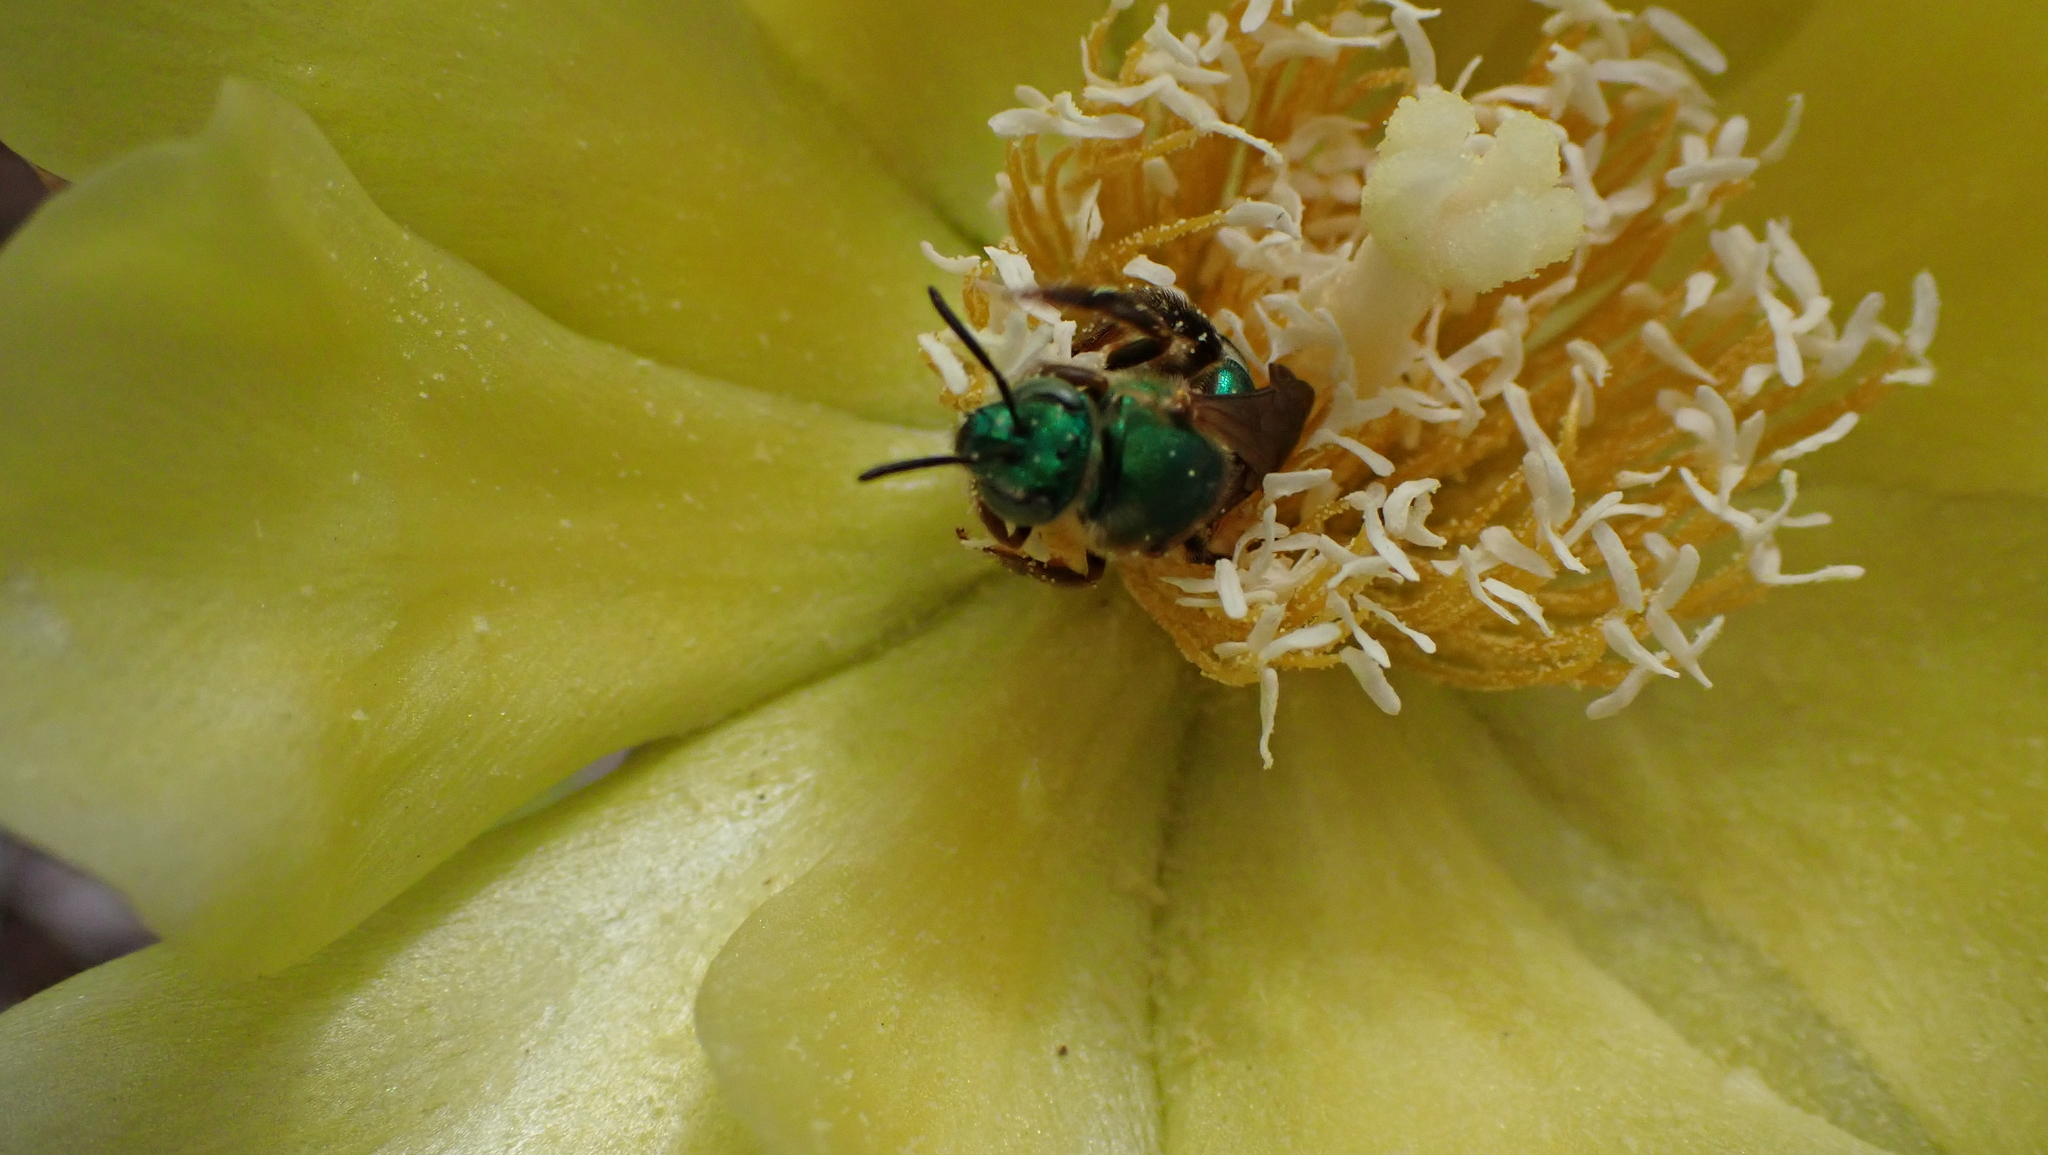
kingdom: Animalia
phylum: Arthropoda
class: Insecta
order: Hymenoptera
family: Halictidae
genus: Agapostemon
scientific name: Agapostemon splendens
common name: Brown-winged striped sweat bee
